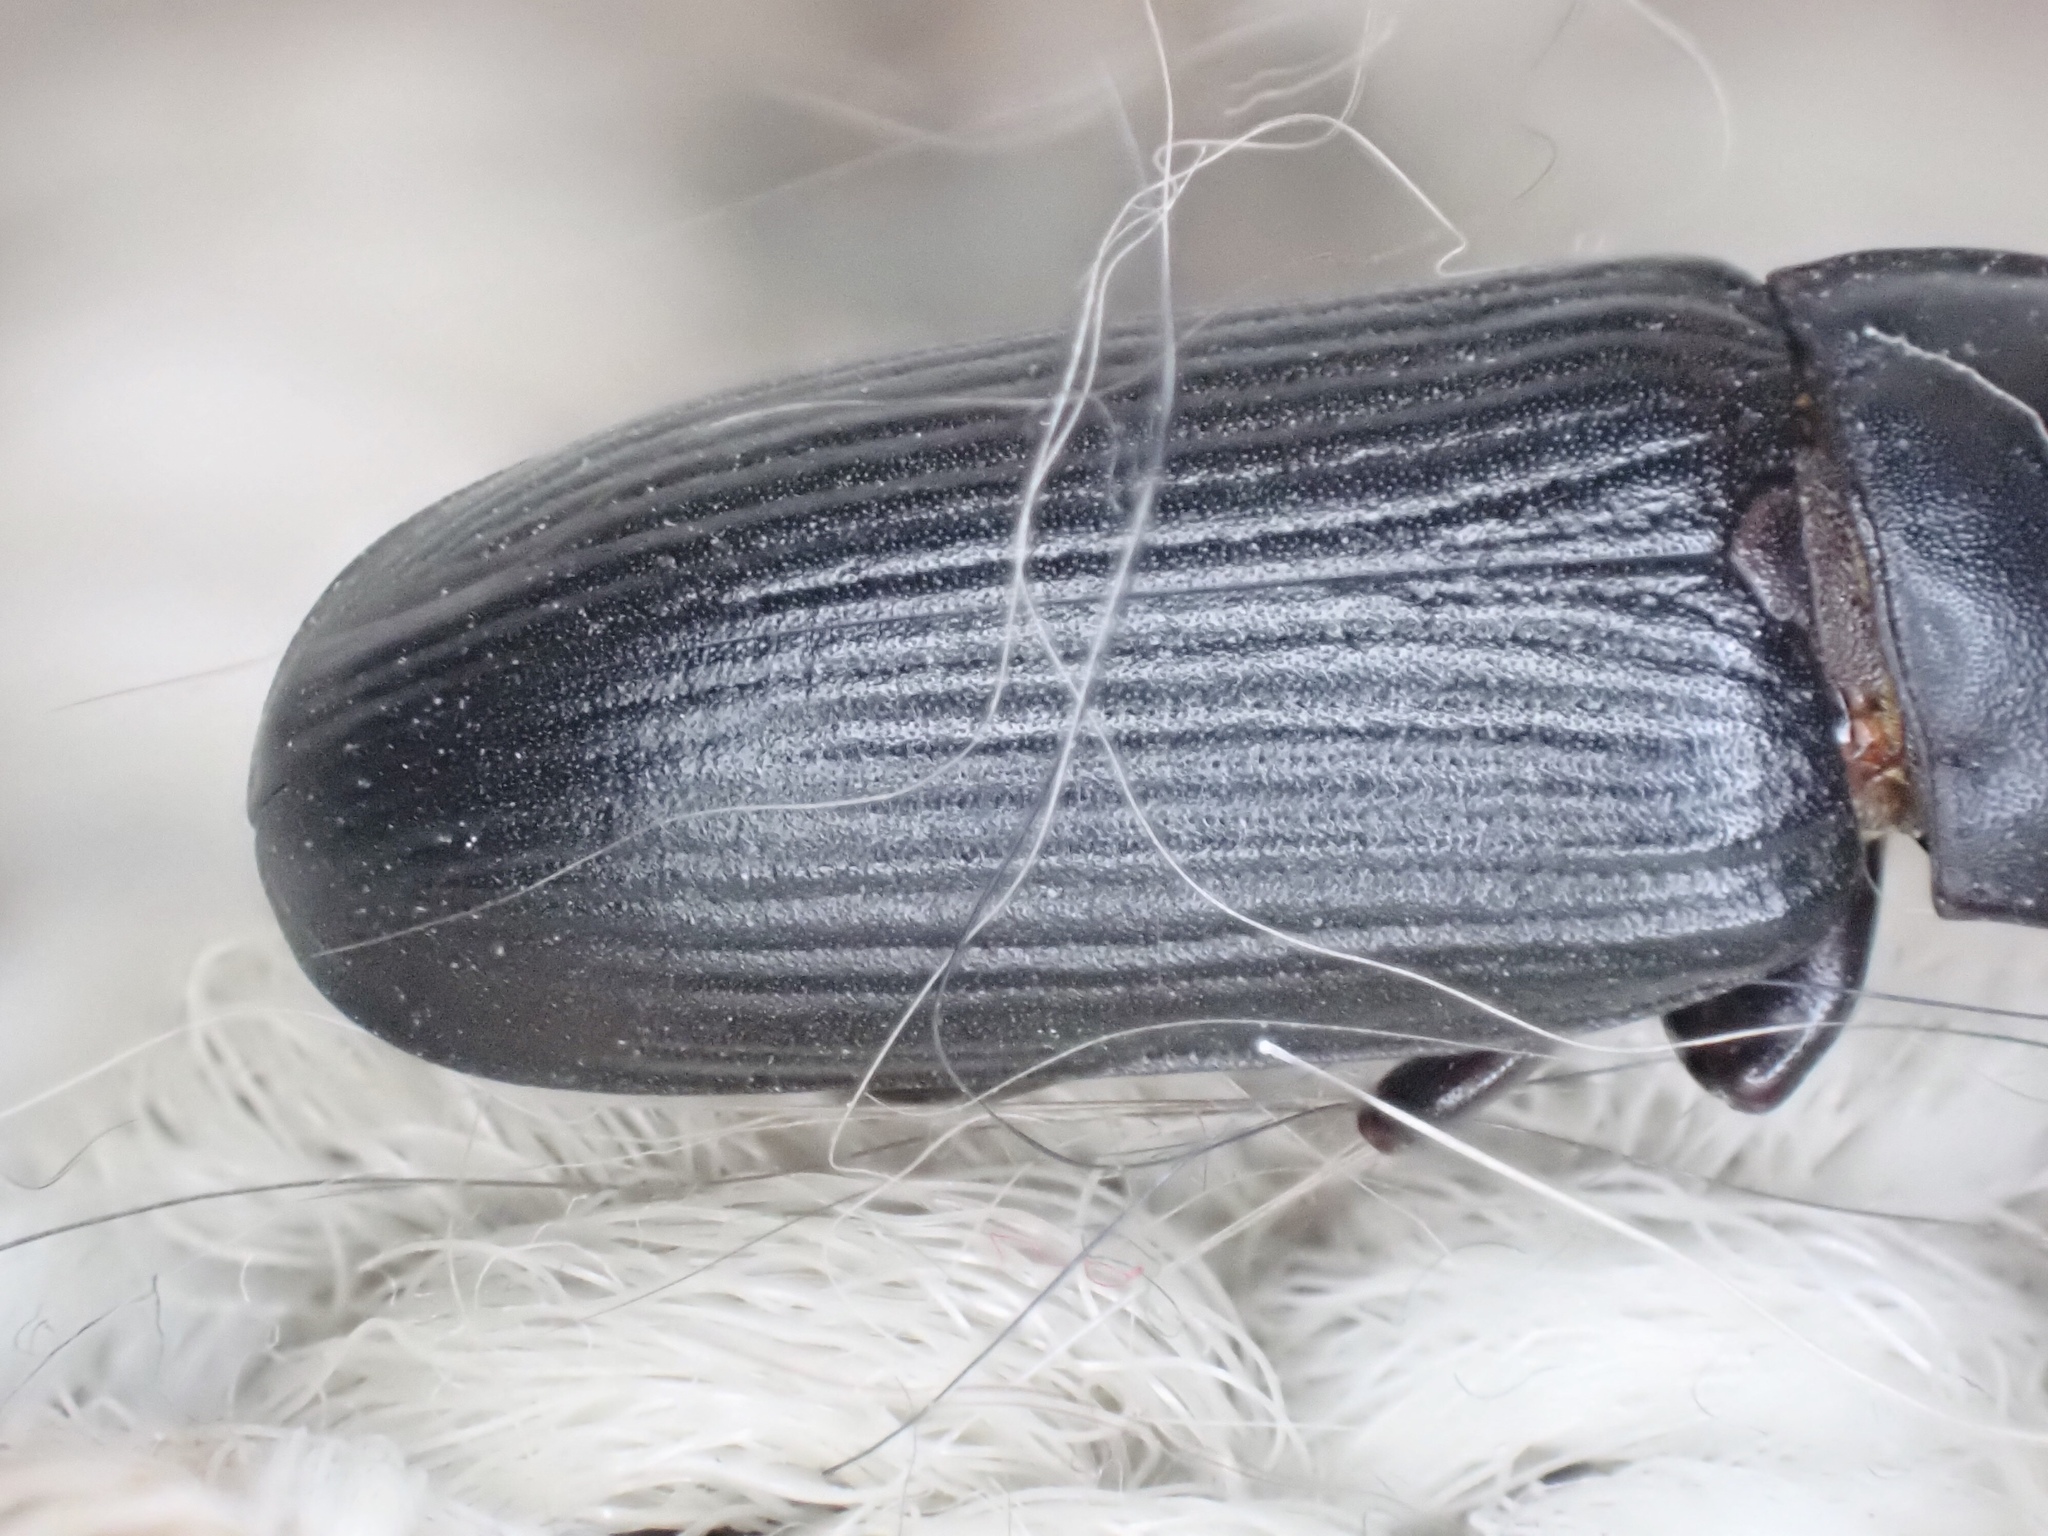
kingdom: Animalia
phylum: Arthropoda
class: Insecta
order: Coleoptera
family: Tenebrionidae
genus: Tenebrio
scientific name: Tenebrio molitor
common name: Hardback beetle
